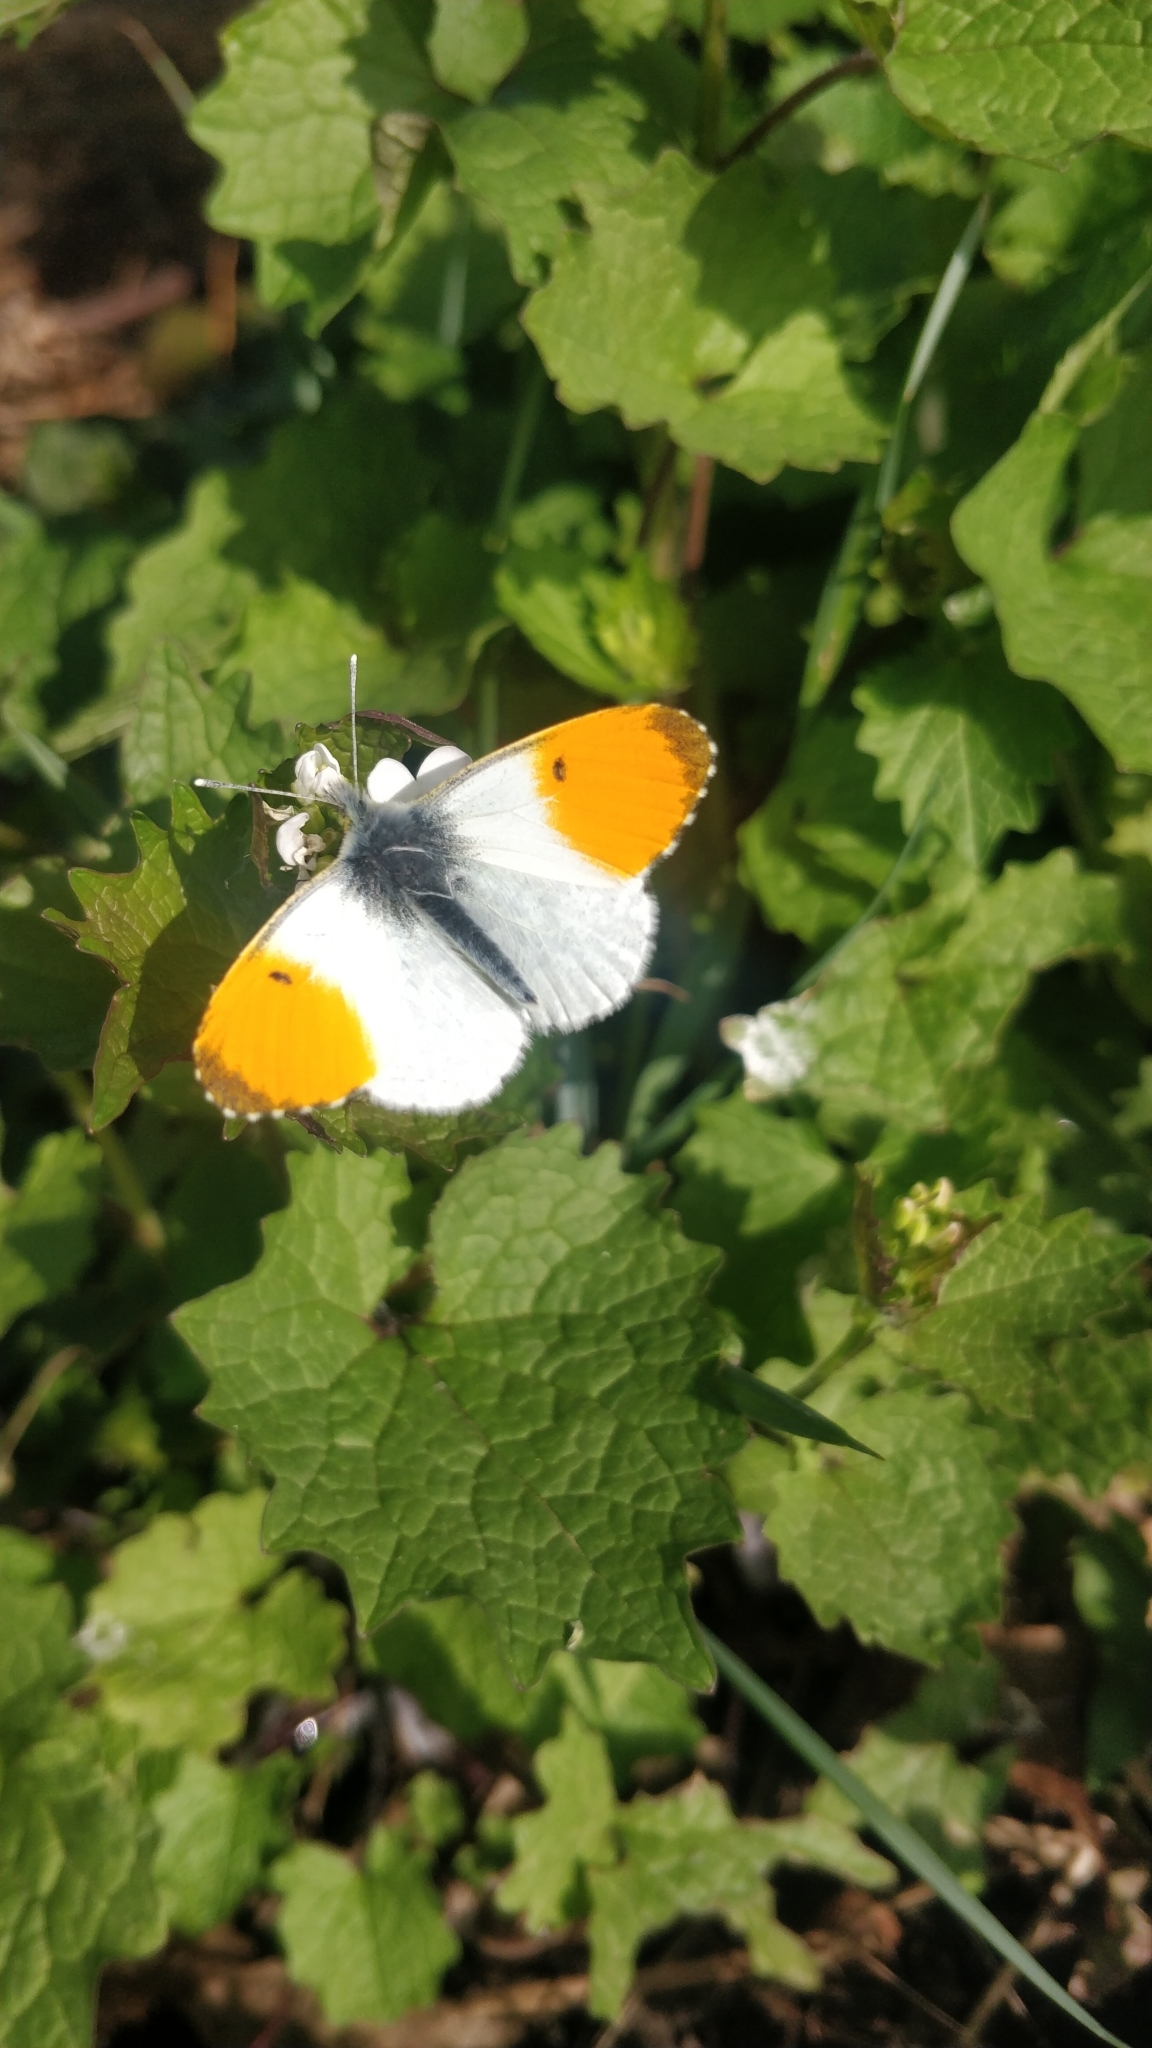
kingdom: Animalia
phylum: Arthropoda
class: Insecta
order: Lepidoptera
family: Pieridae
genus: Anthocharis
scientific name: Anthocharis cardamines
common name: Orange-tip
